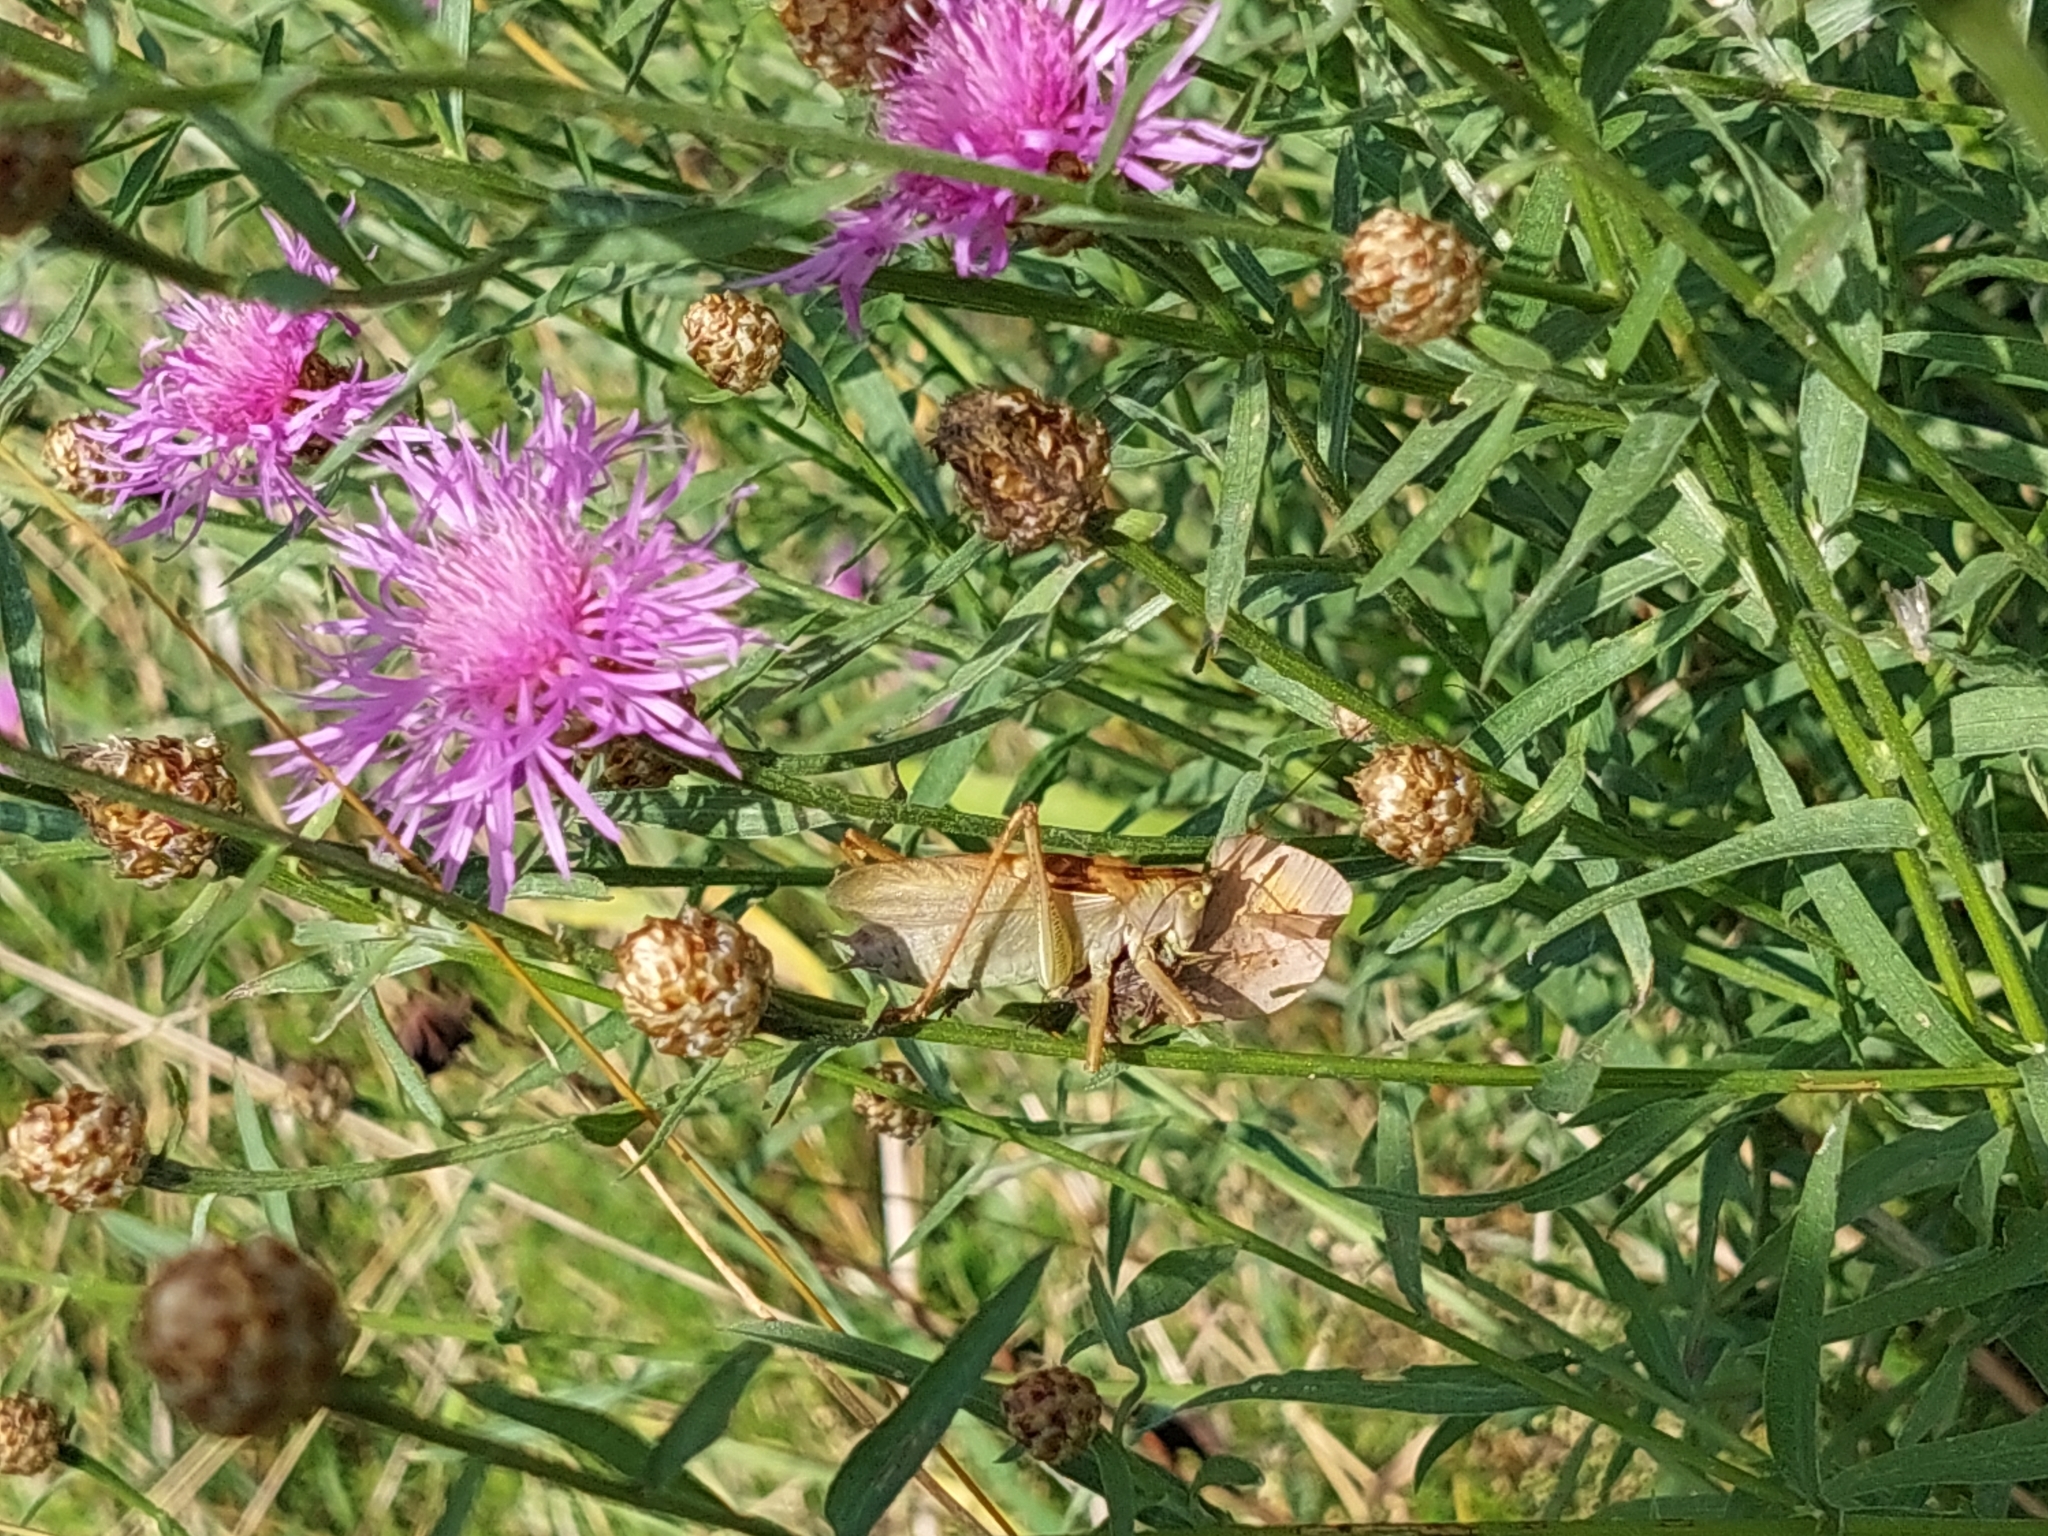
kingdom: Animalia
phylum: Arthropoda
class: Insecta
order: Orthoptera
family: Tettigoniidae
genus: Tettigonia
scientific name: Tettigonia cantans
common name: Upland green bush-cricket
